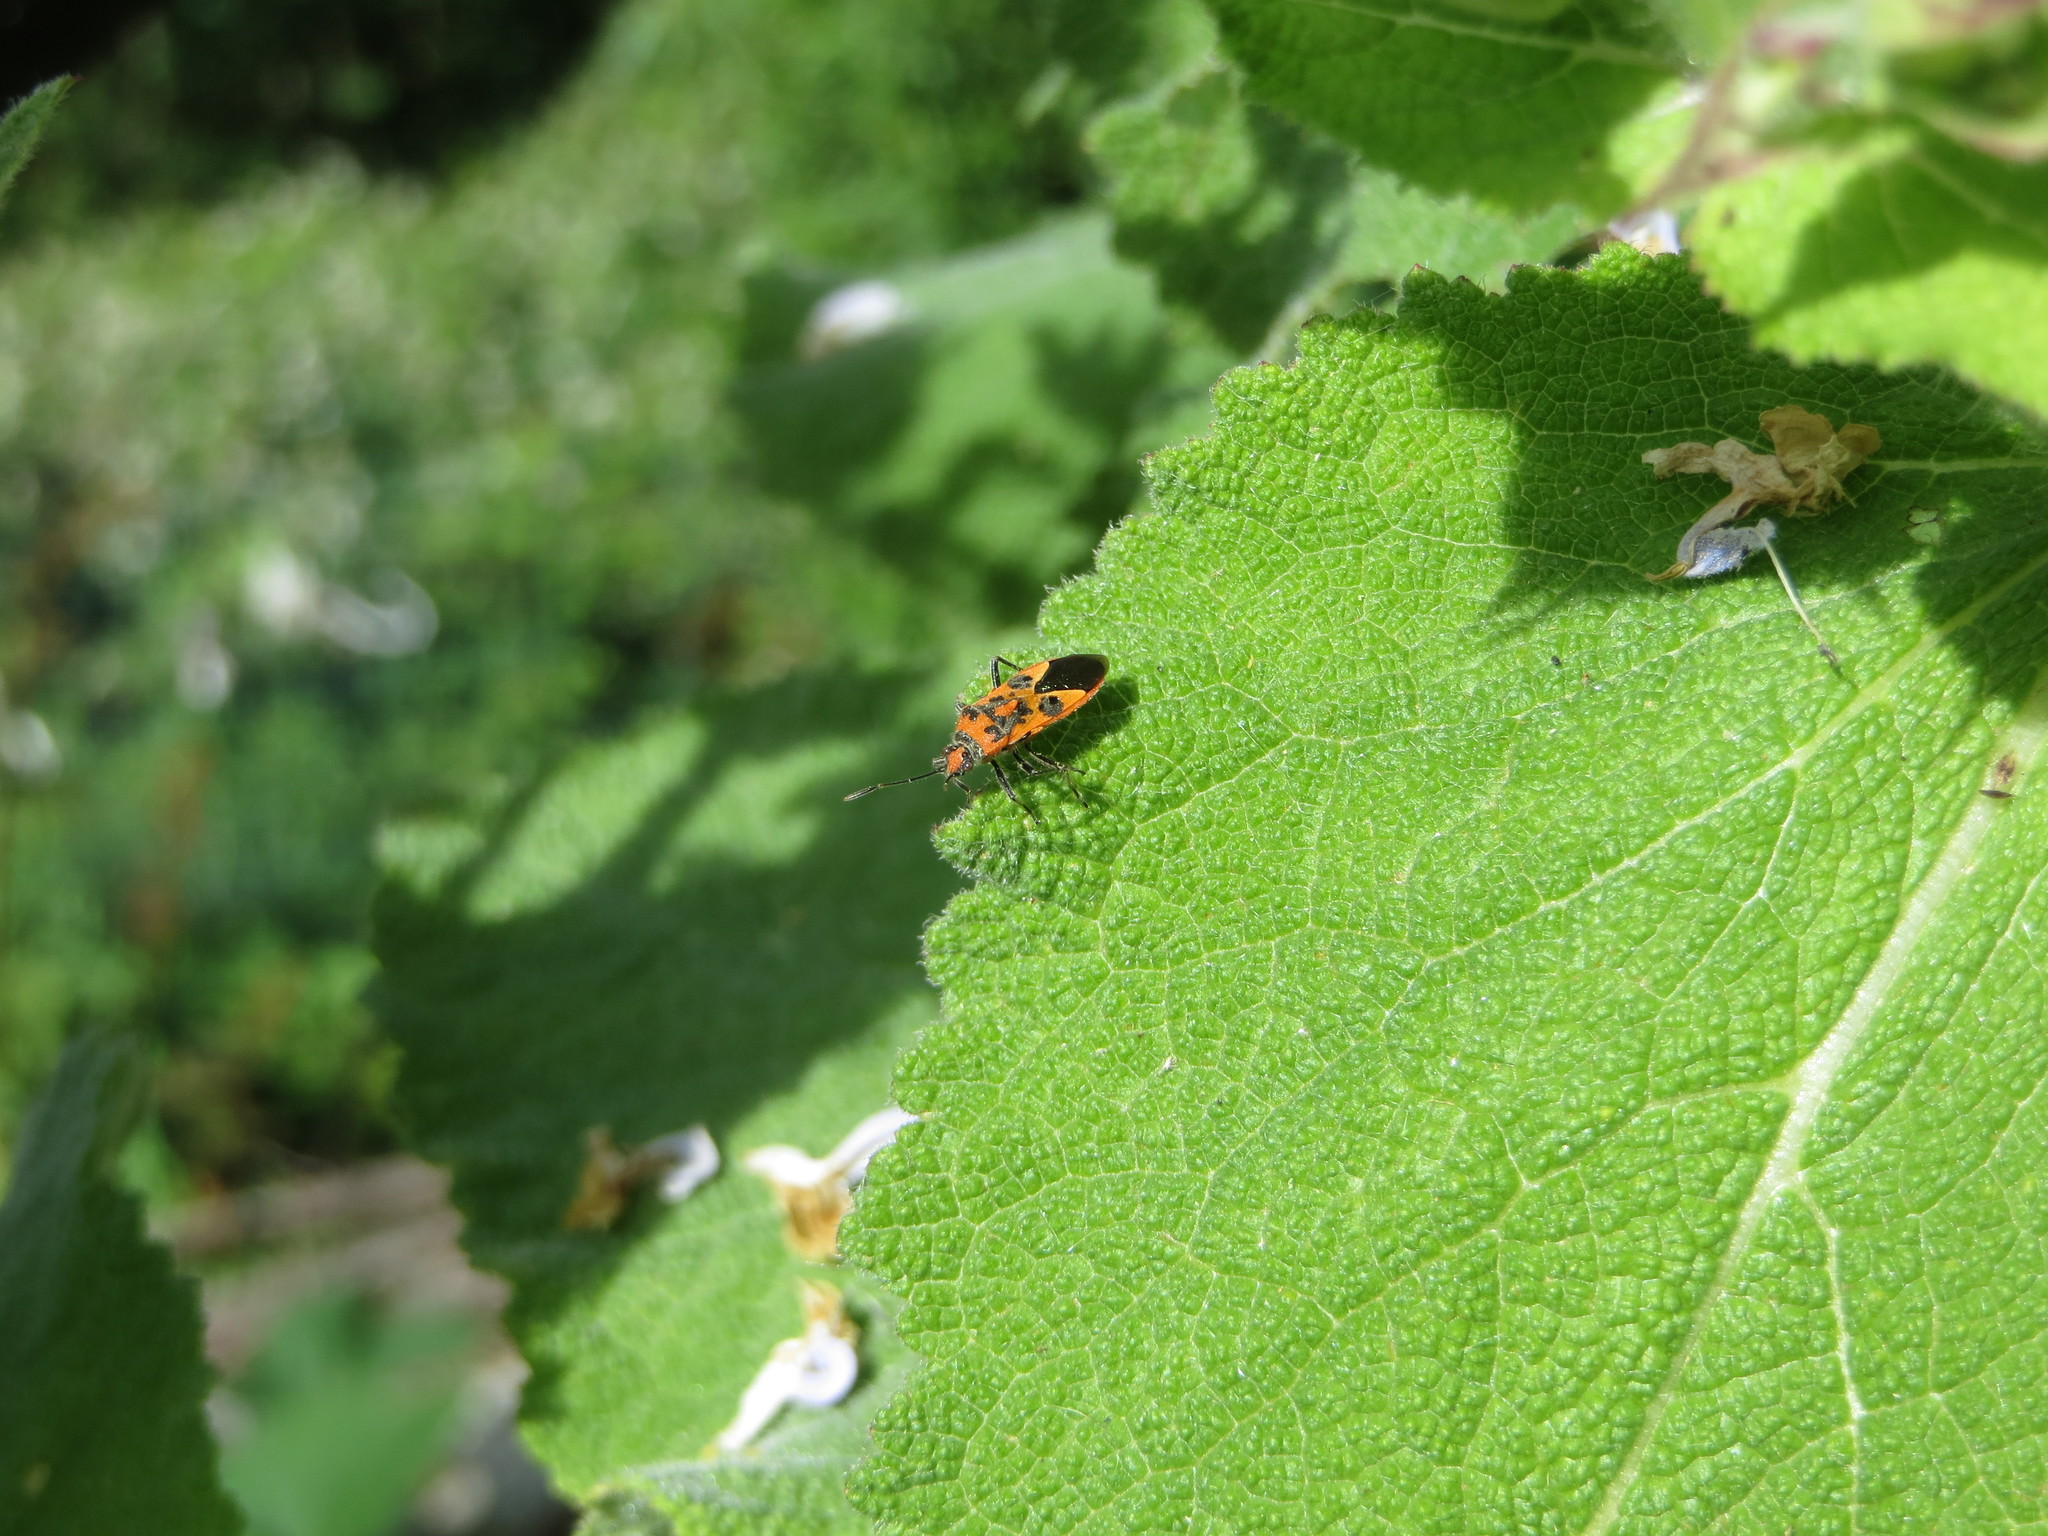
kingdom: Animalia
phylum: Arthropoda
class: Insecta
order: Hemiptera
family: Rhopalidae
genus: Corizus
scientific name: Corizus hyoscyami
